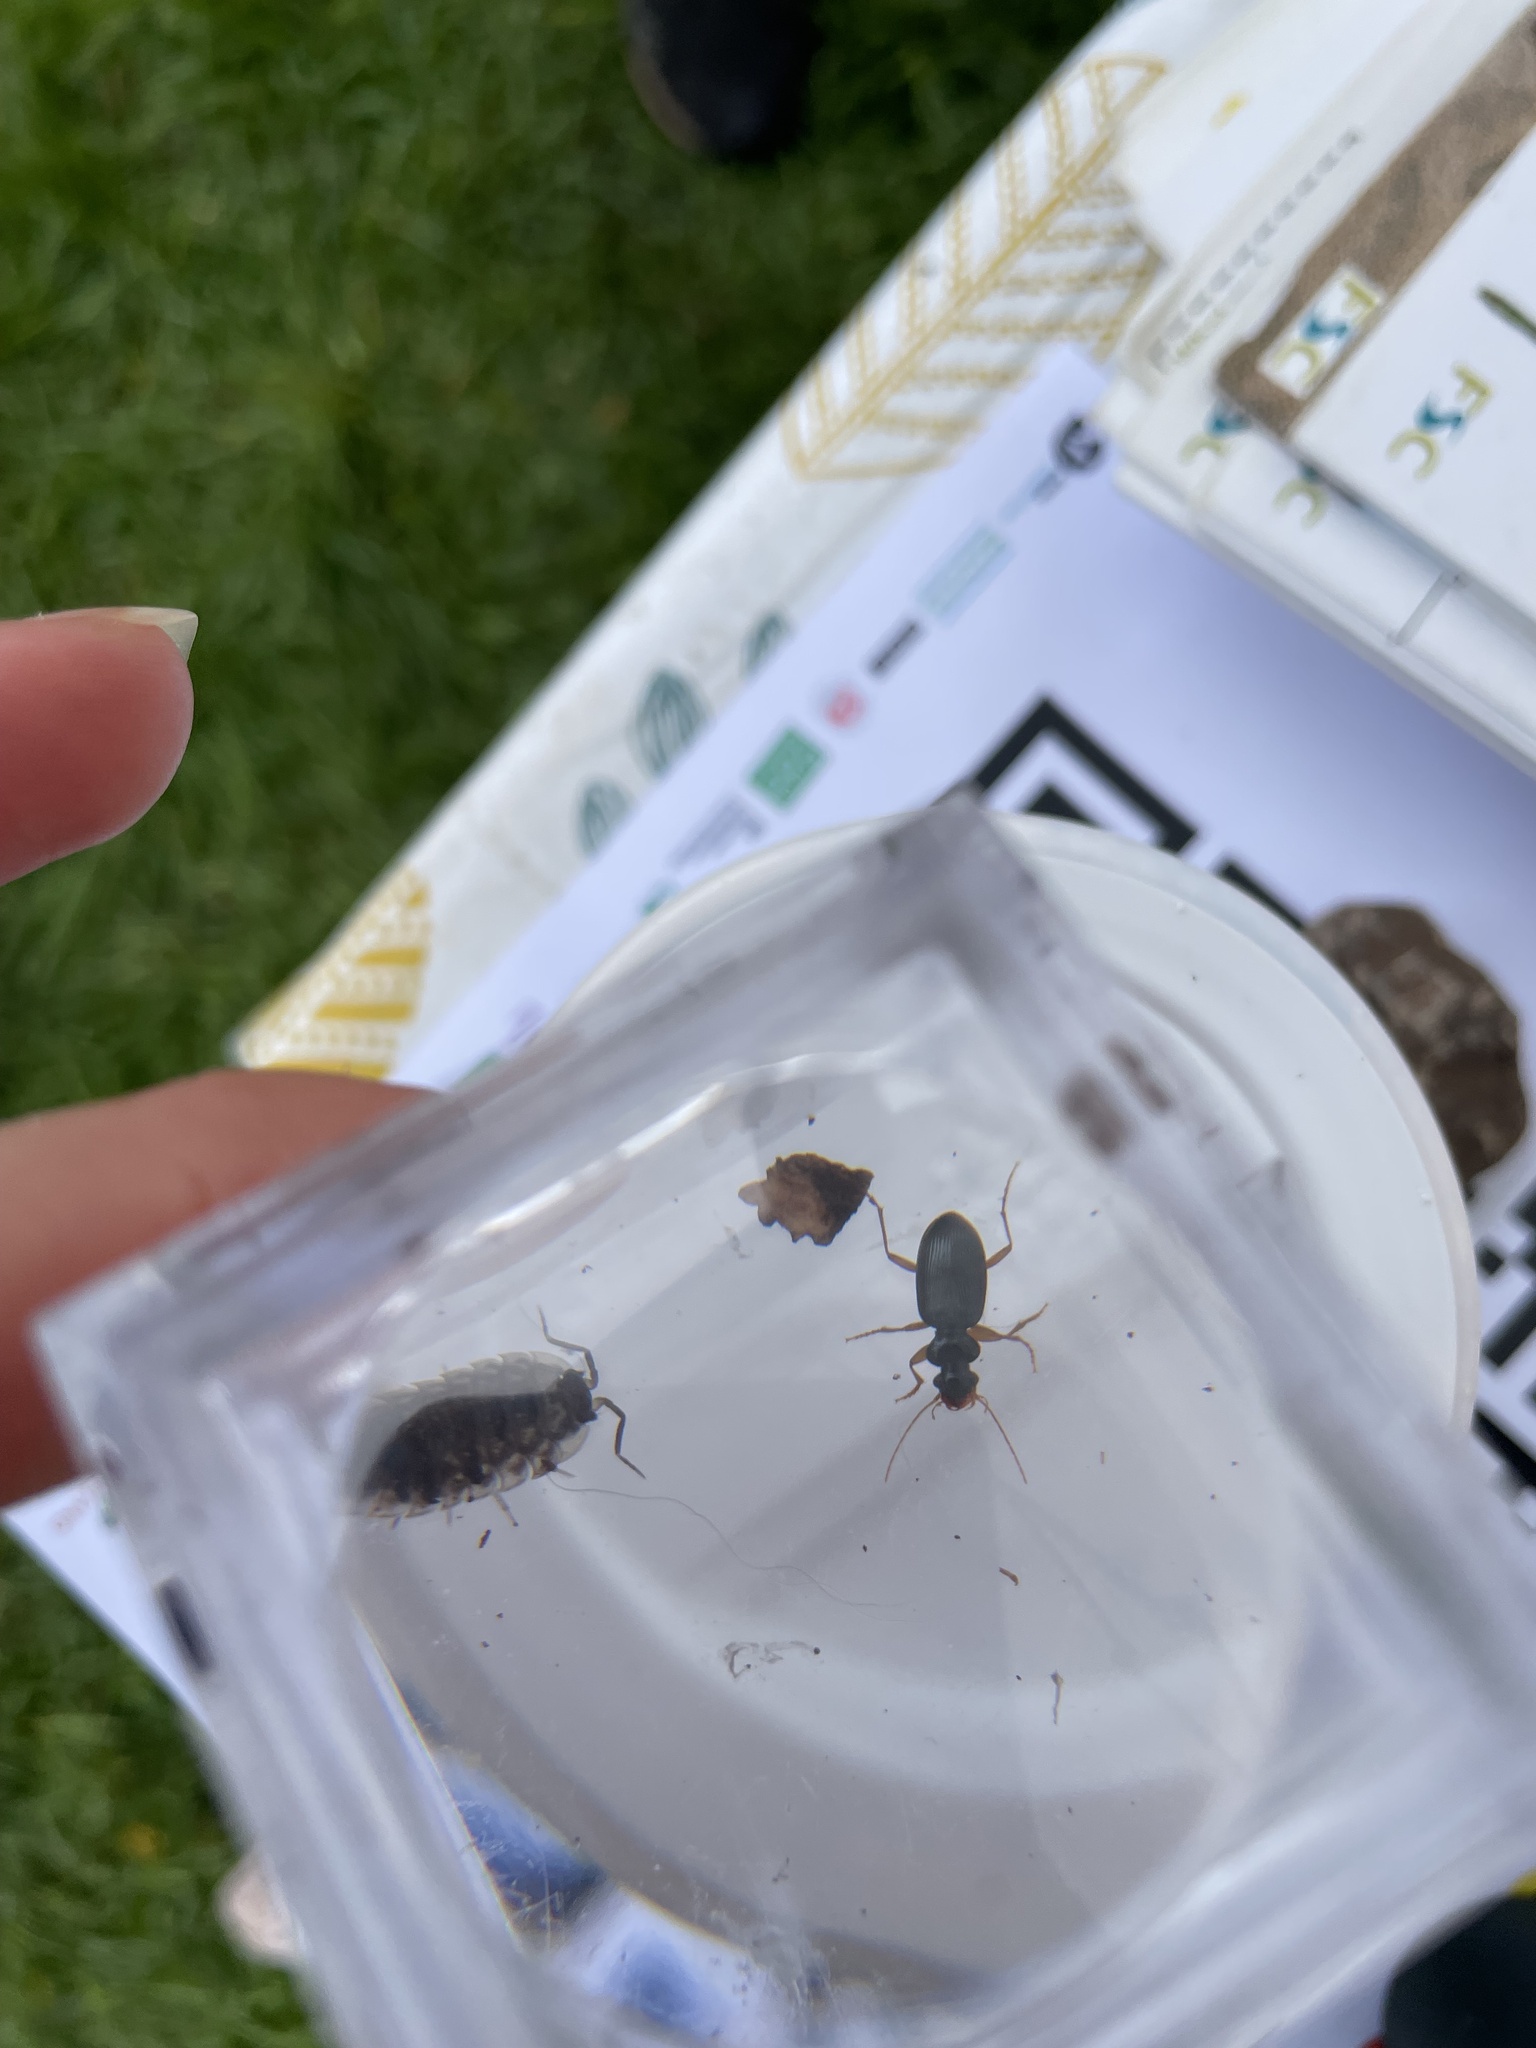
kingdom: Animalia
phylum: Arthropoda
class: Insecta
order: Coleoptera
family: Carabidae
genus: Leistus
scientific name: Leistus rufomarginatus
